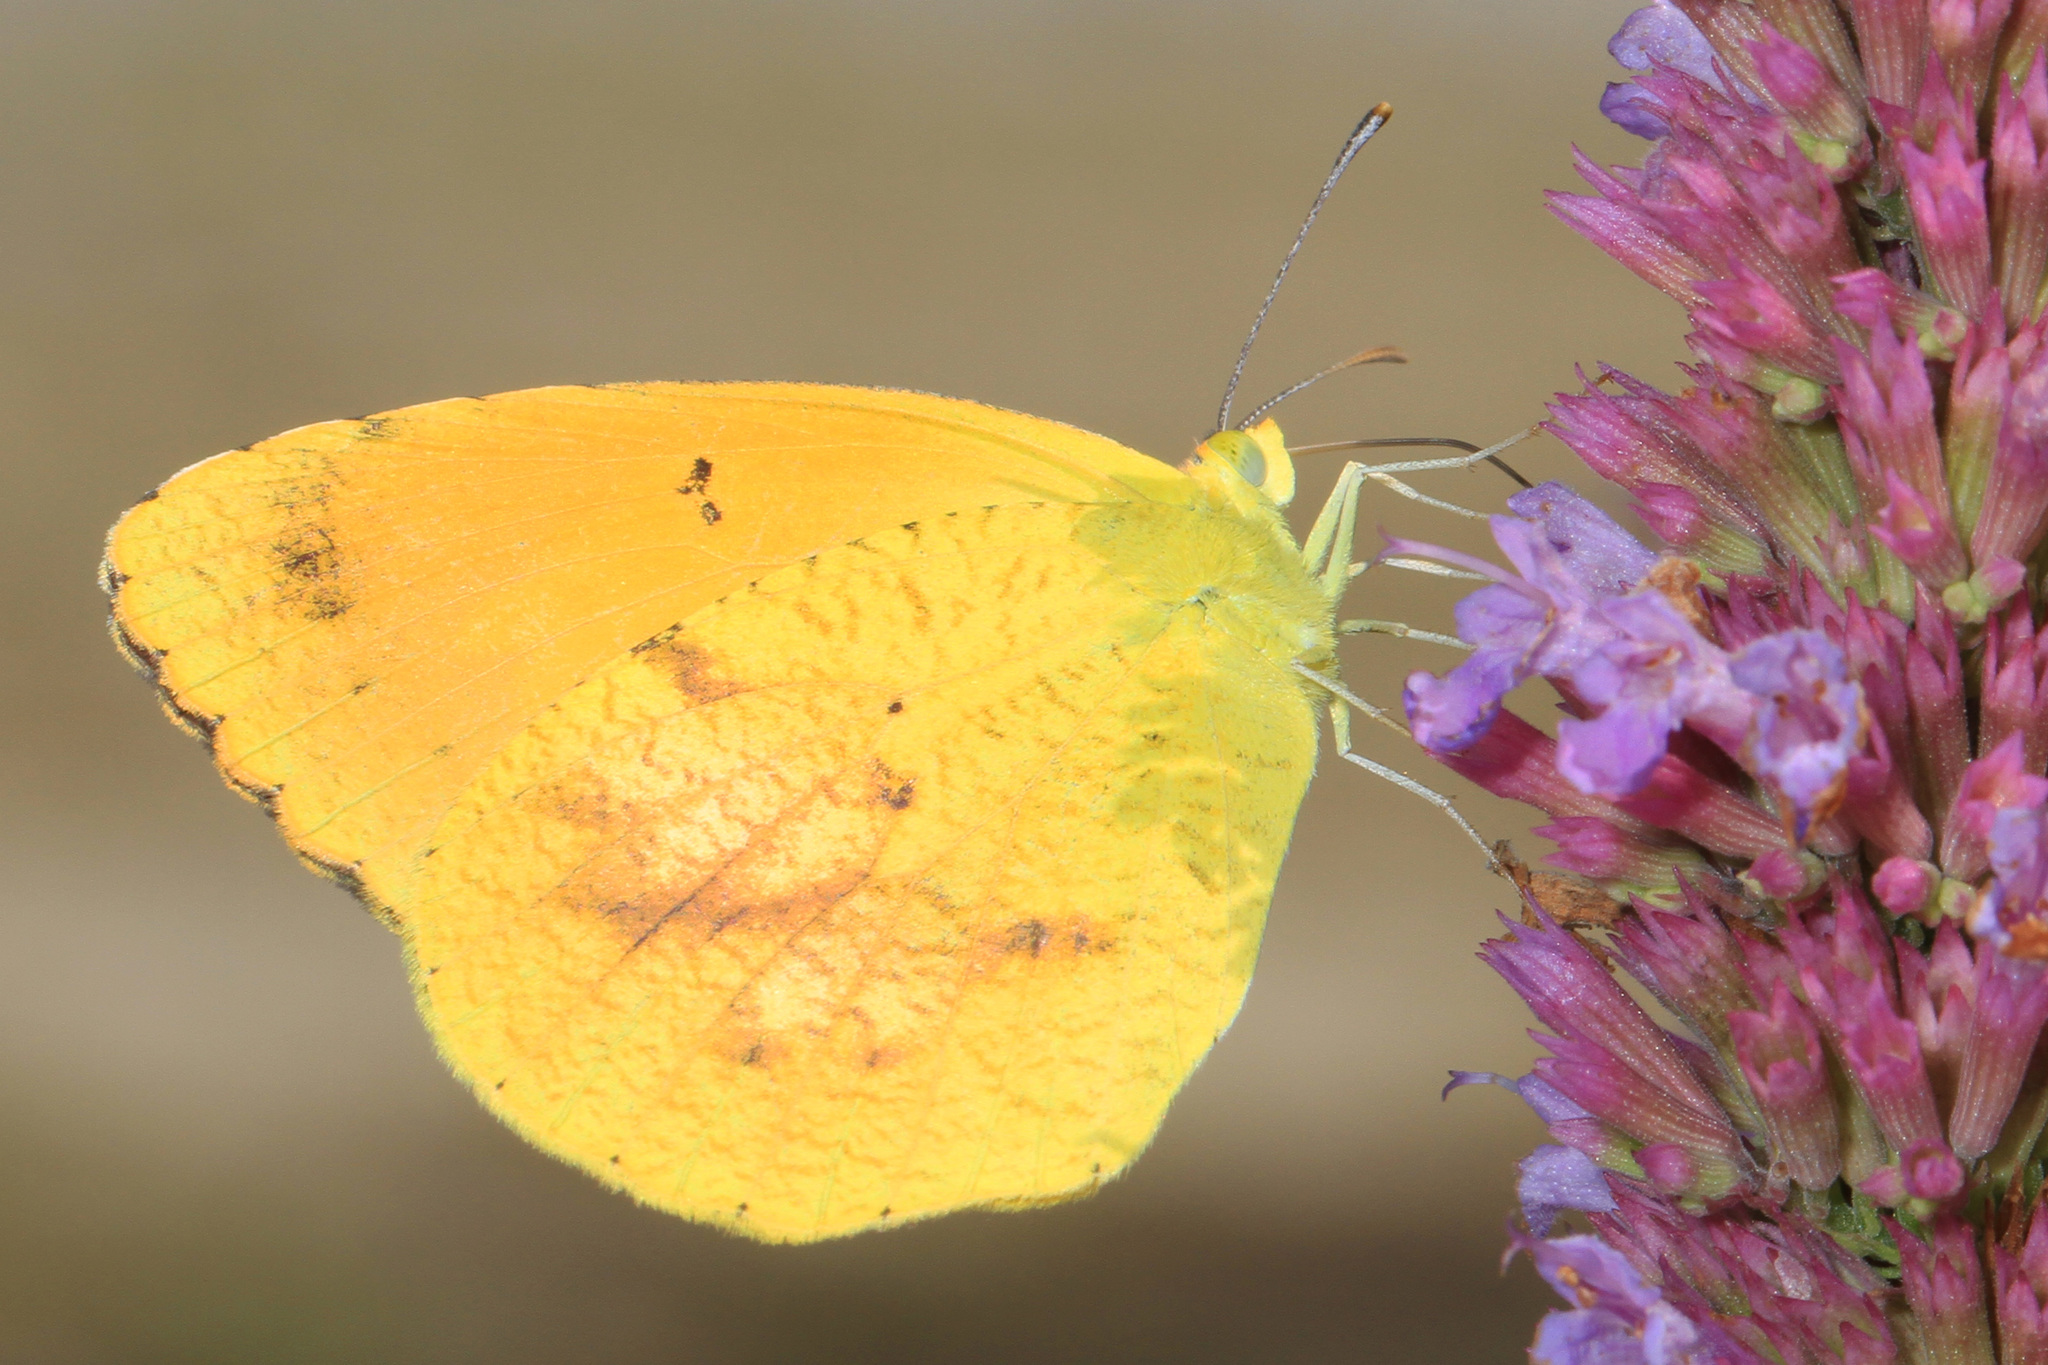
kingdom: Animalia
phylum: Arthropoda
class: Insecta
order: Lepidoptera
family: Pieridae
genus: Abaeis
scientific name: Abaeis nicippe
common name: Sleepy orange
